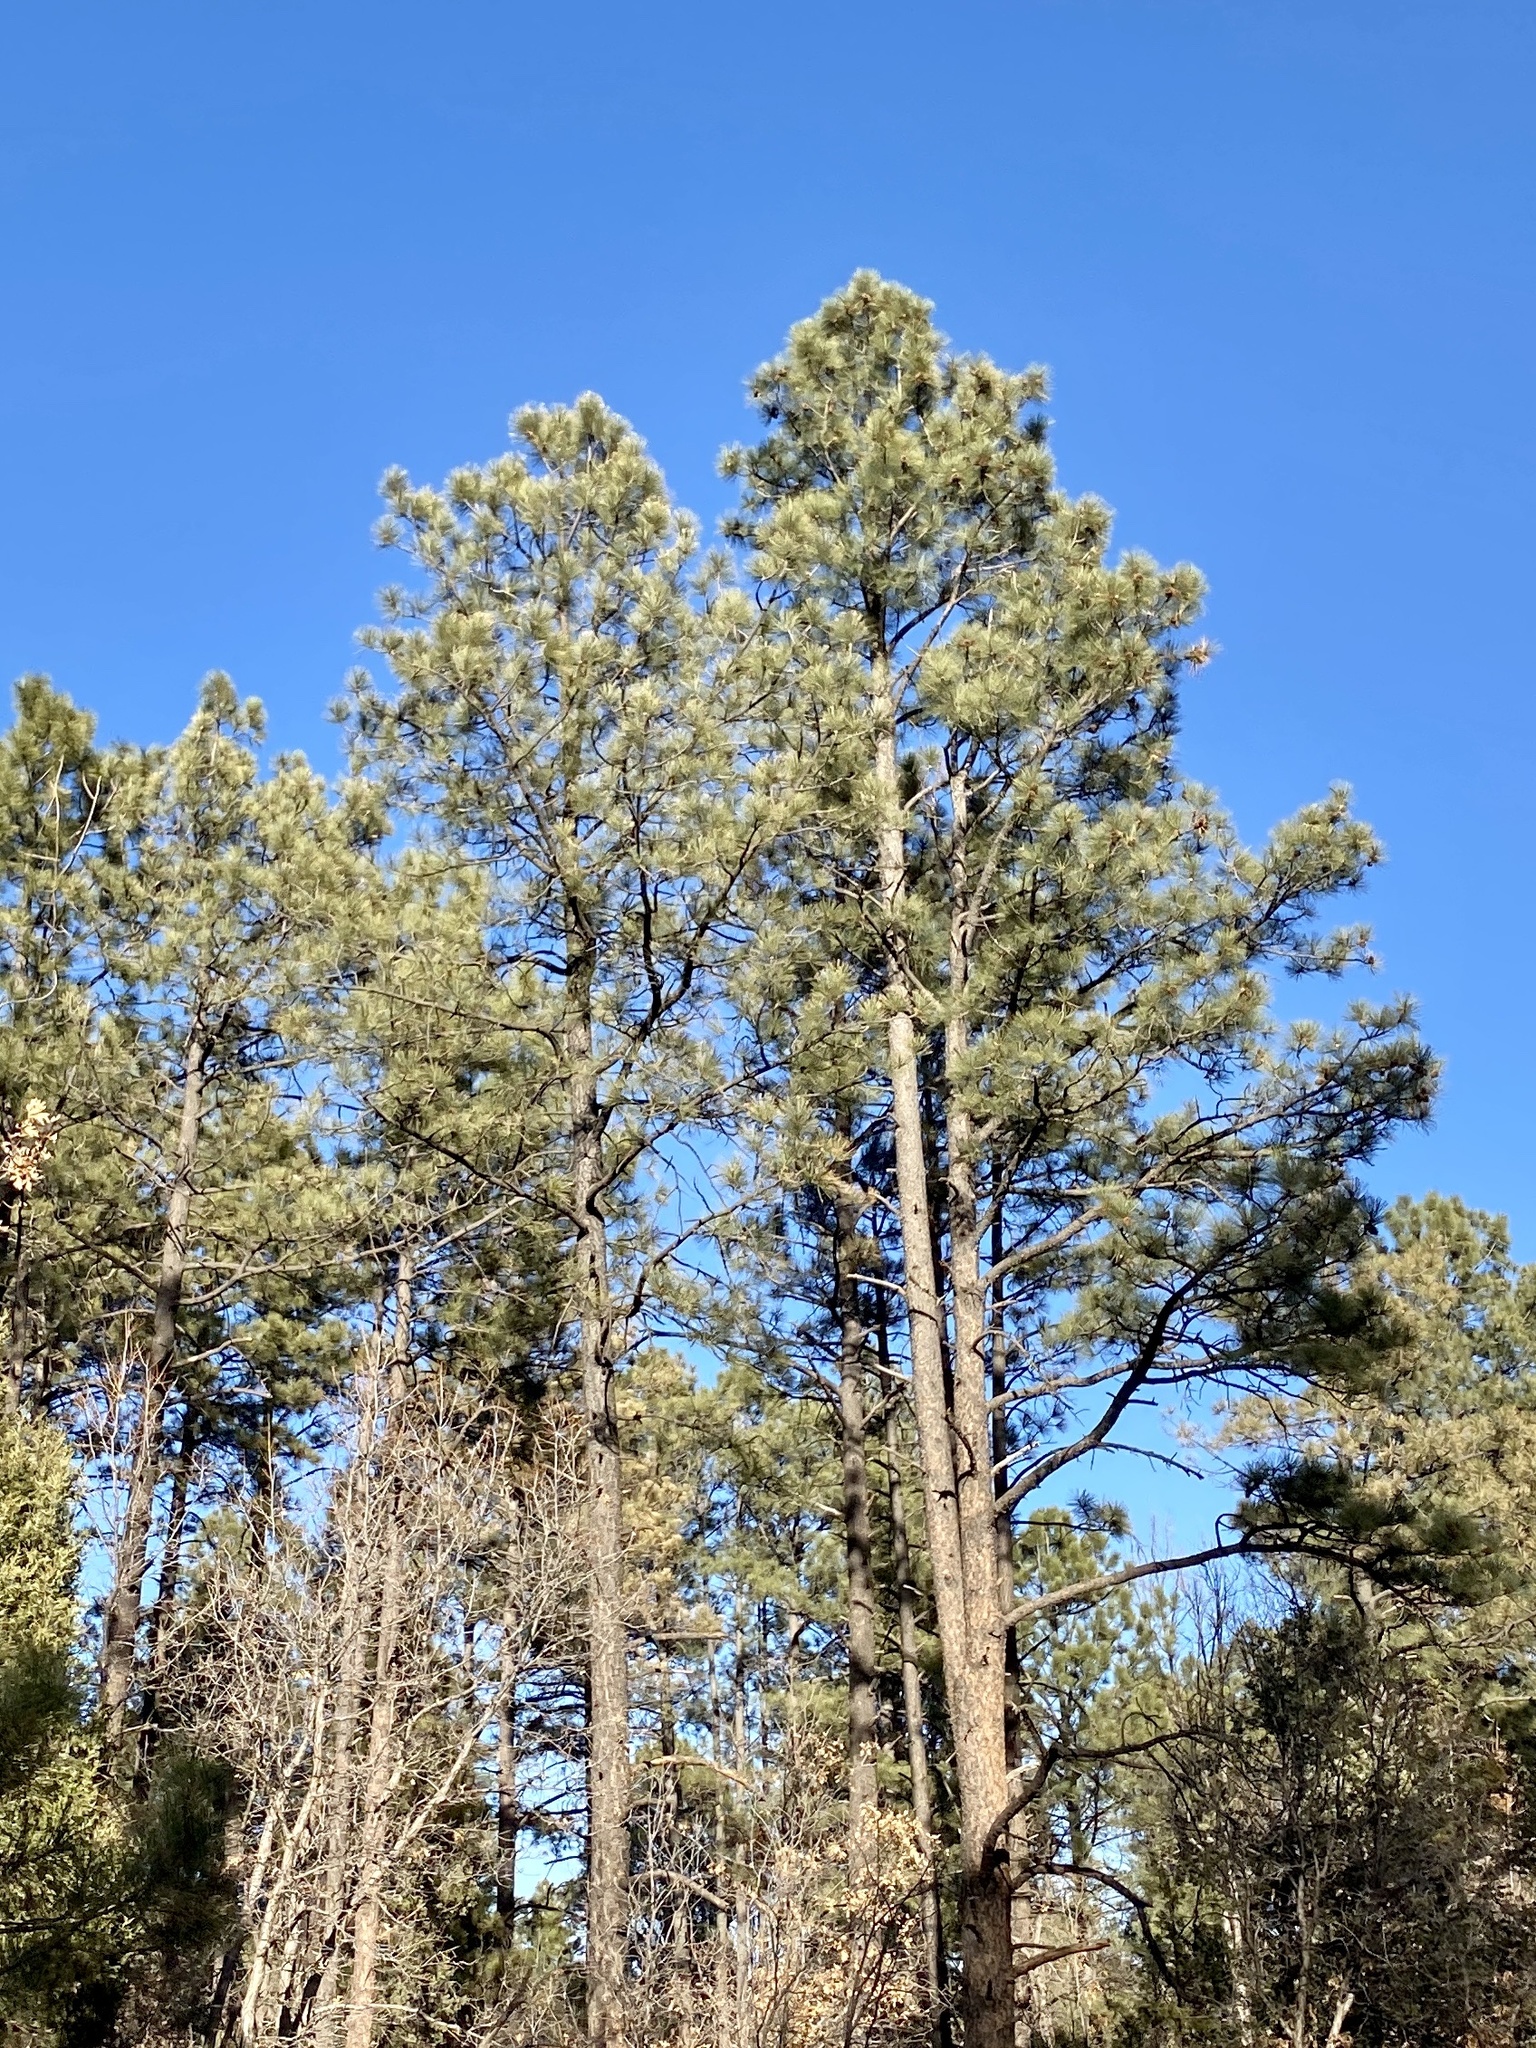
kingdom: Plantae
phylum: Tracheophyta
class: Pinopsida
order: Pinales
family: Pinaceae
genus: Pinus
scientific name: Pinus ponderosa
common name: Western yellow-pine
